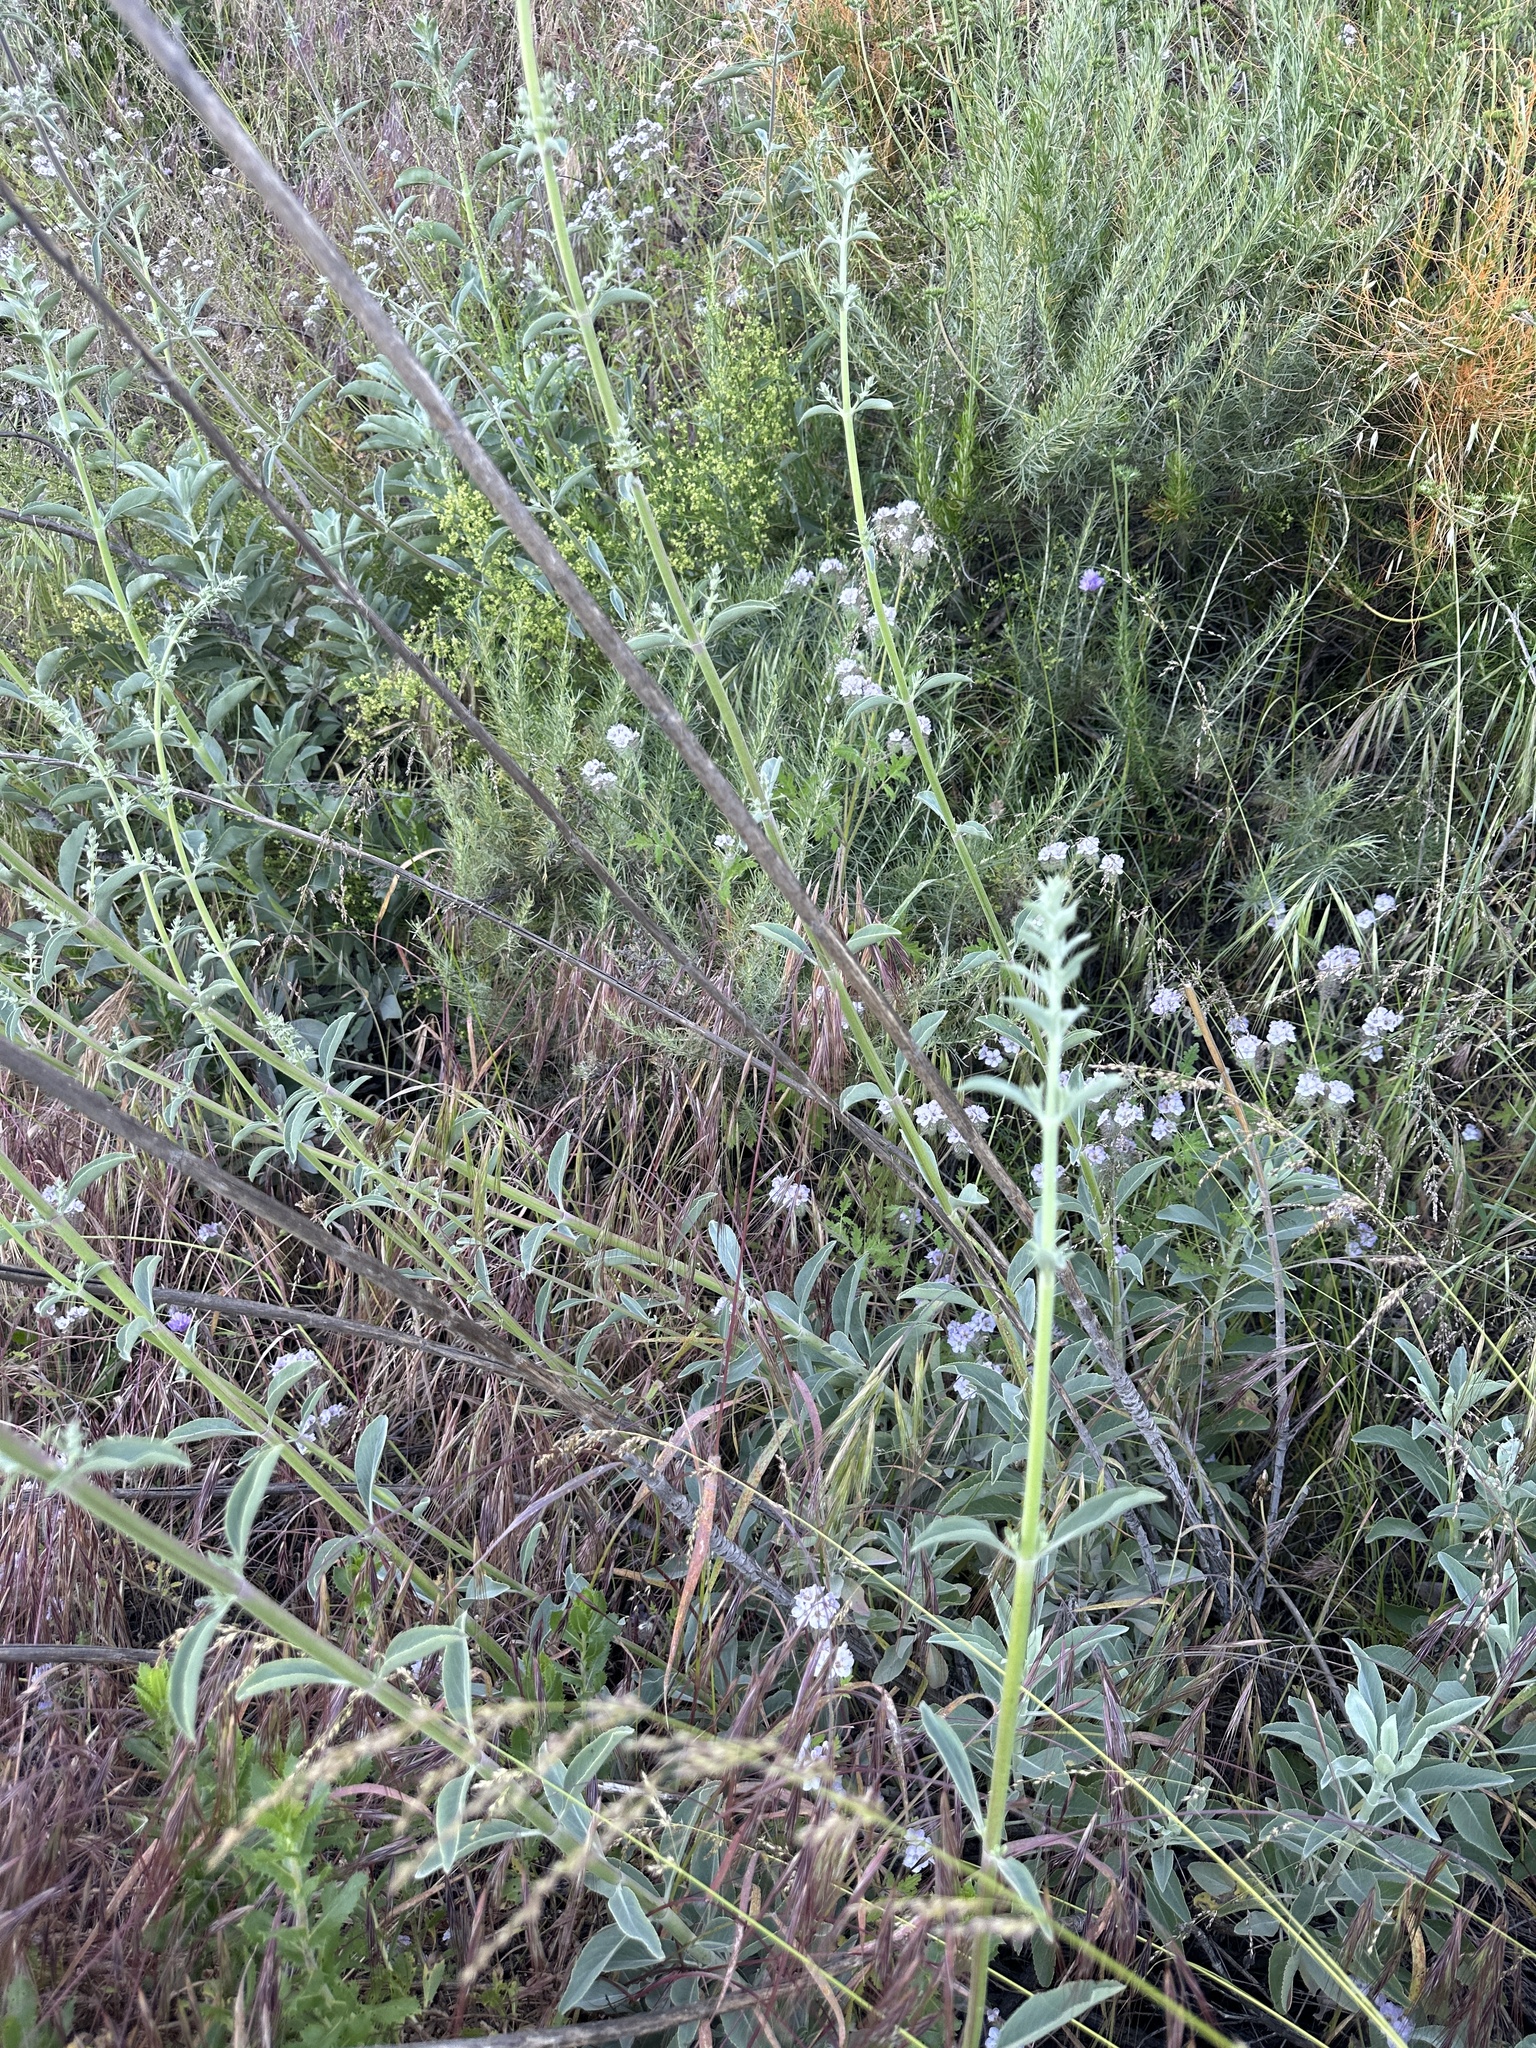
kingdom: Plantae
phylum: Tracheophyta
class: Magnoliopsida
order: Lamiales
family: Lamiaceae
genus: Salvia
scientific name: Salvia apiana
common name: White sage
